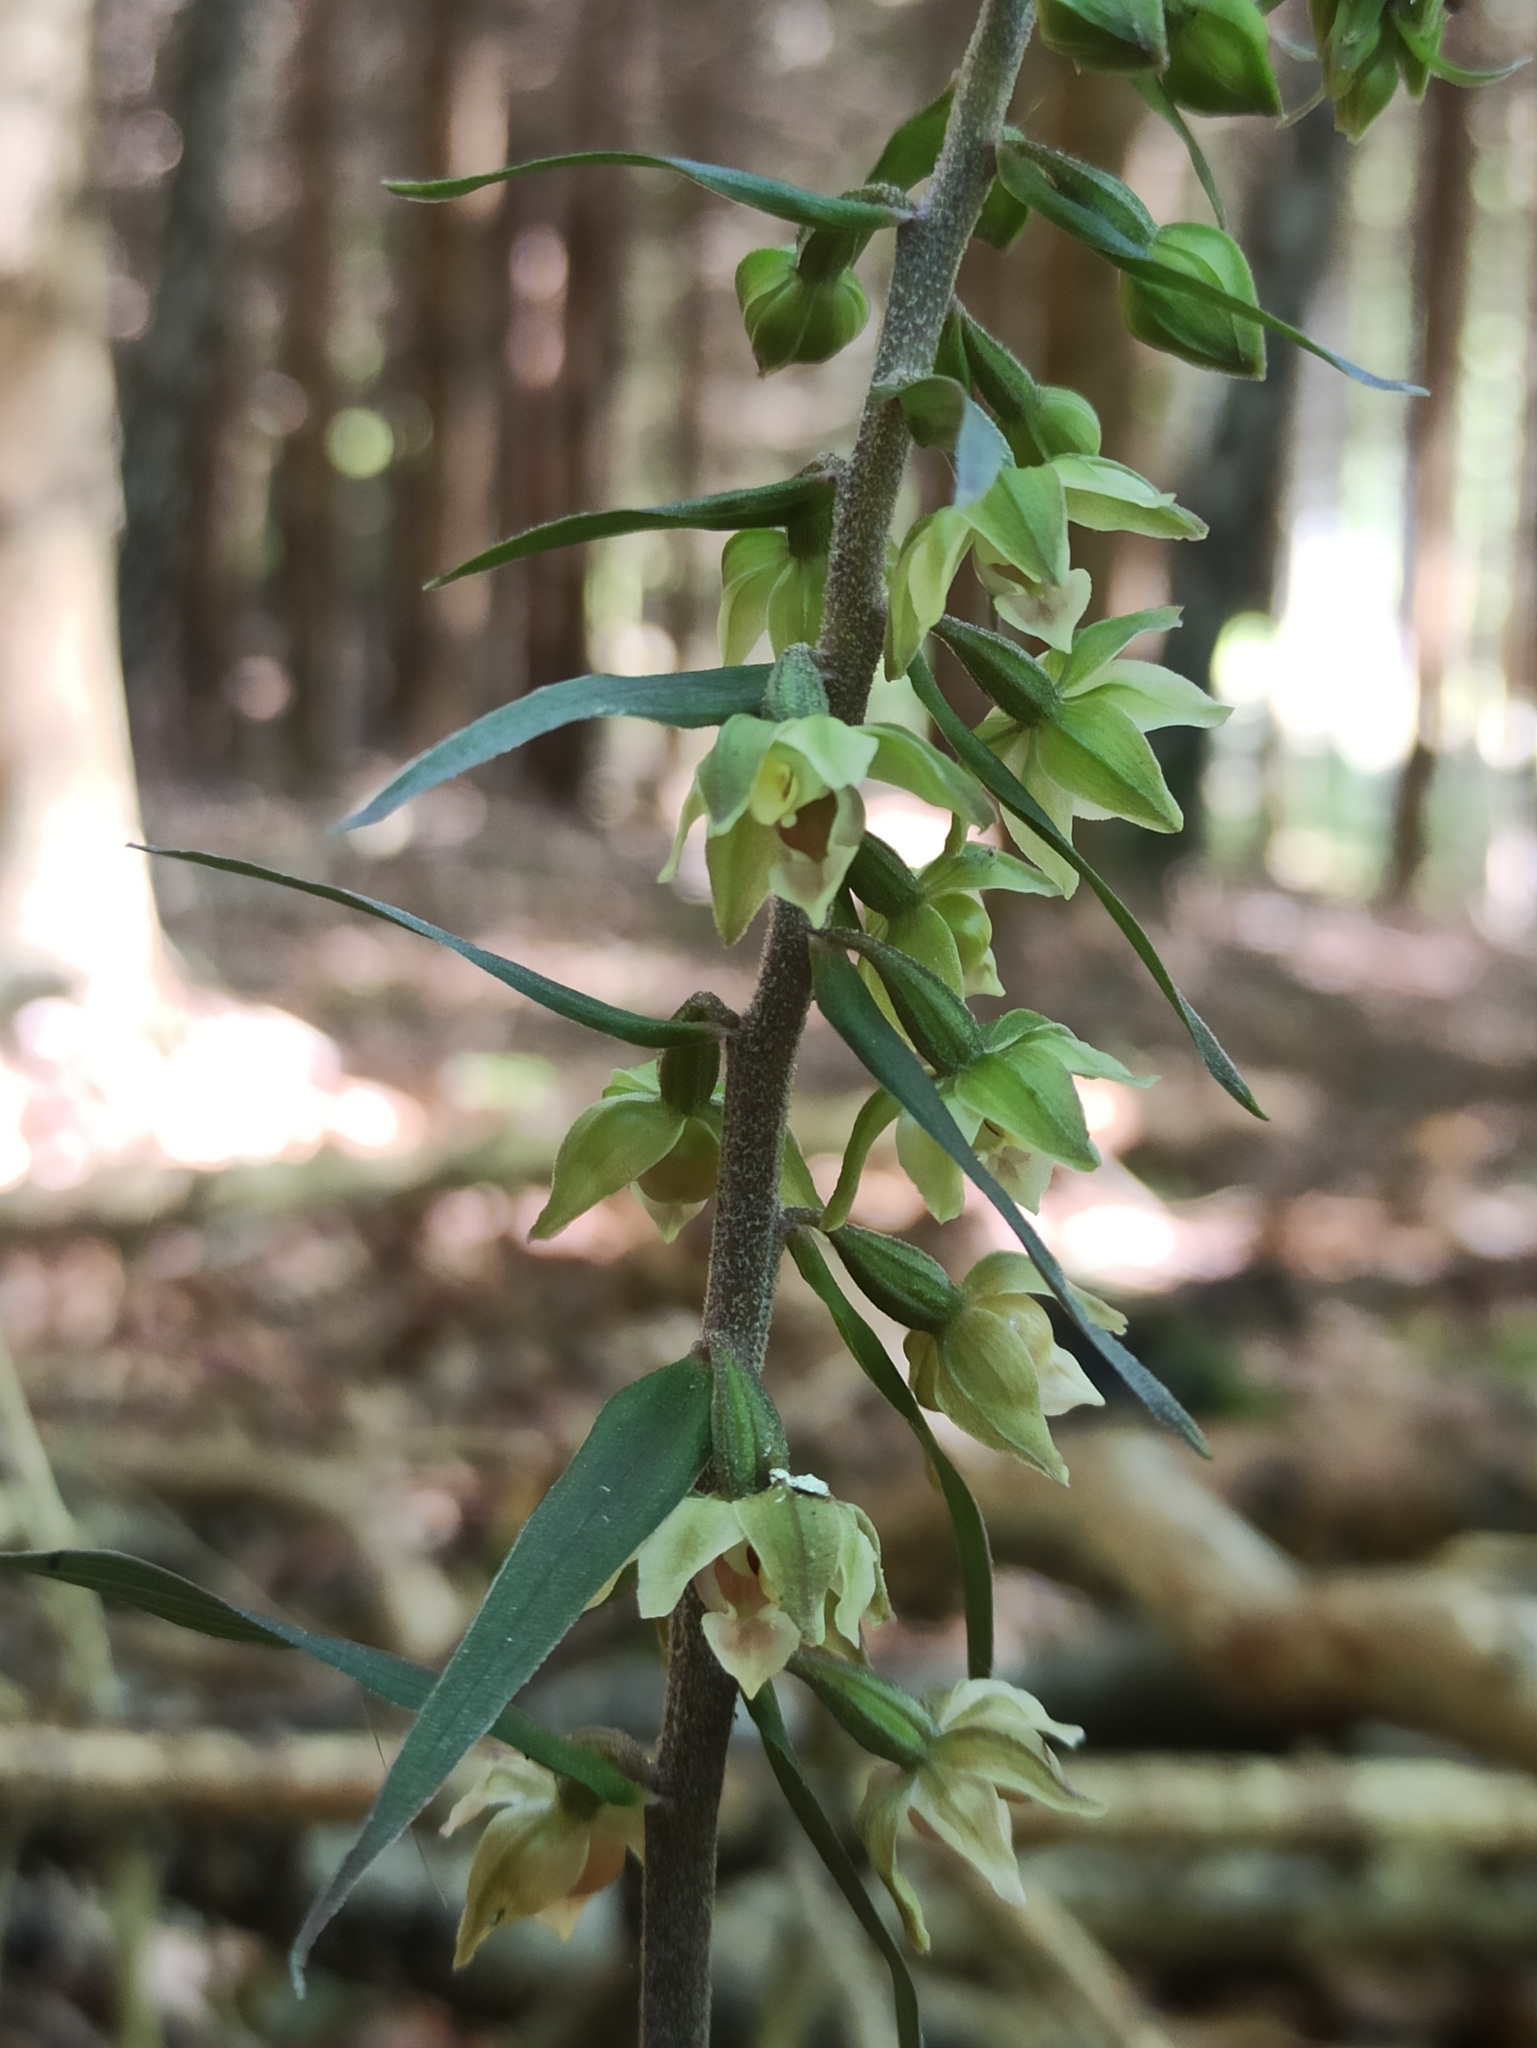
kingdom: Plantae
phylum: Tracheophyta
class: Liliopsida
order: Asparagales
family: Orchidaceae
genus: Epipactis
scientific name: Epipactis purpurata
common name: Violet helleborine
